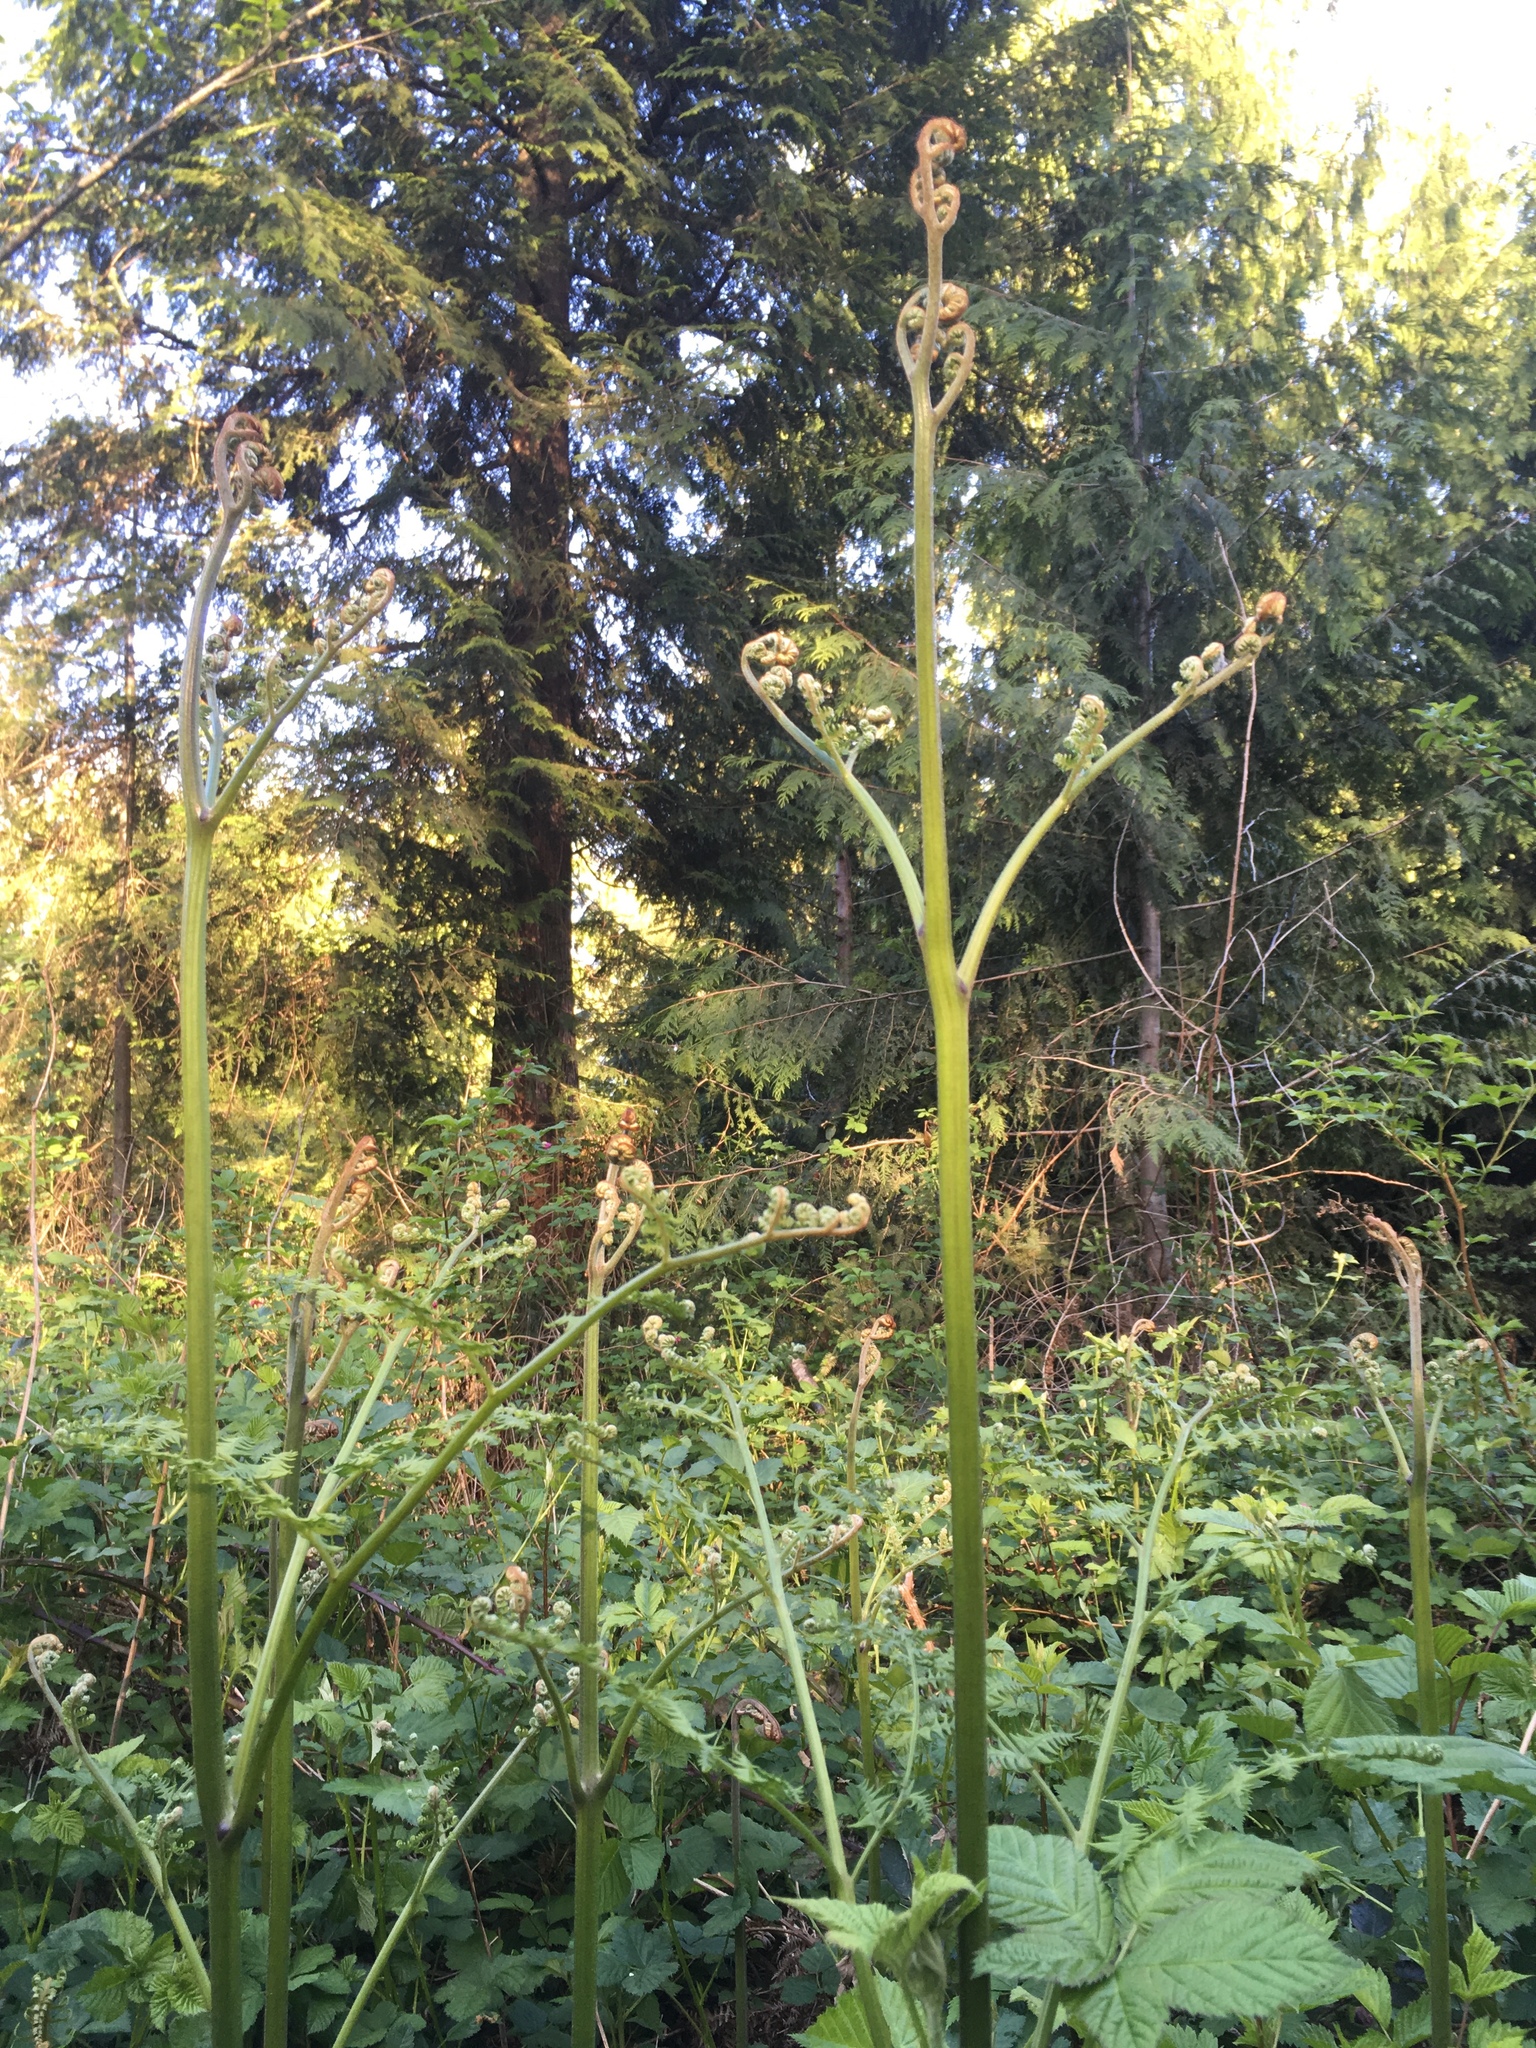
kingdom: Plantae
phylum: Tracheophyta
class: Polypodiopsida
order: Polypodiales
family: Dennstaedtiaceae
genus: Pteridium
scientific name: Pteridium aquilinum
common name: Bracken
